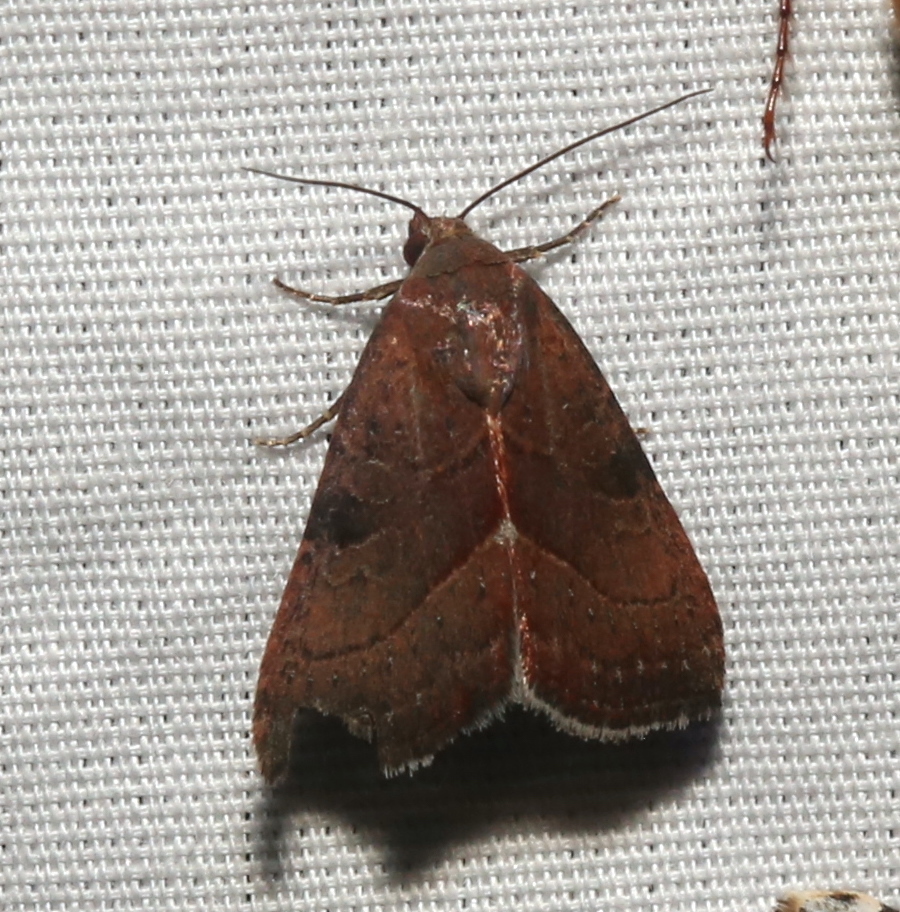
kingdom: Animalia
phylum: Arthropoda
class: Insecta
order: Lepidoptera
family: Noctuidae
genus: Galgula
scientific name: Galgula partita
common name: Wedgeling
